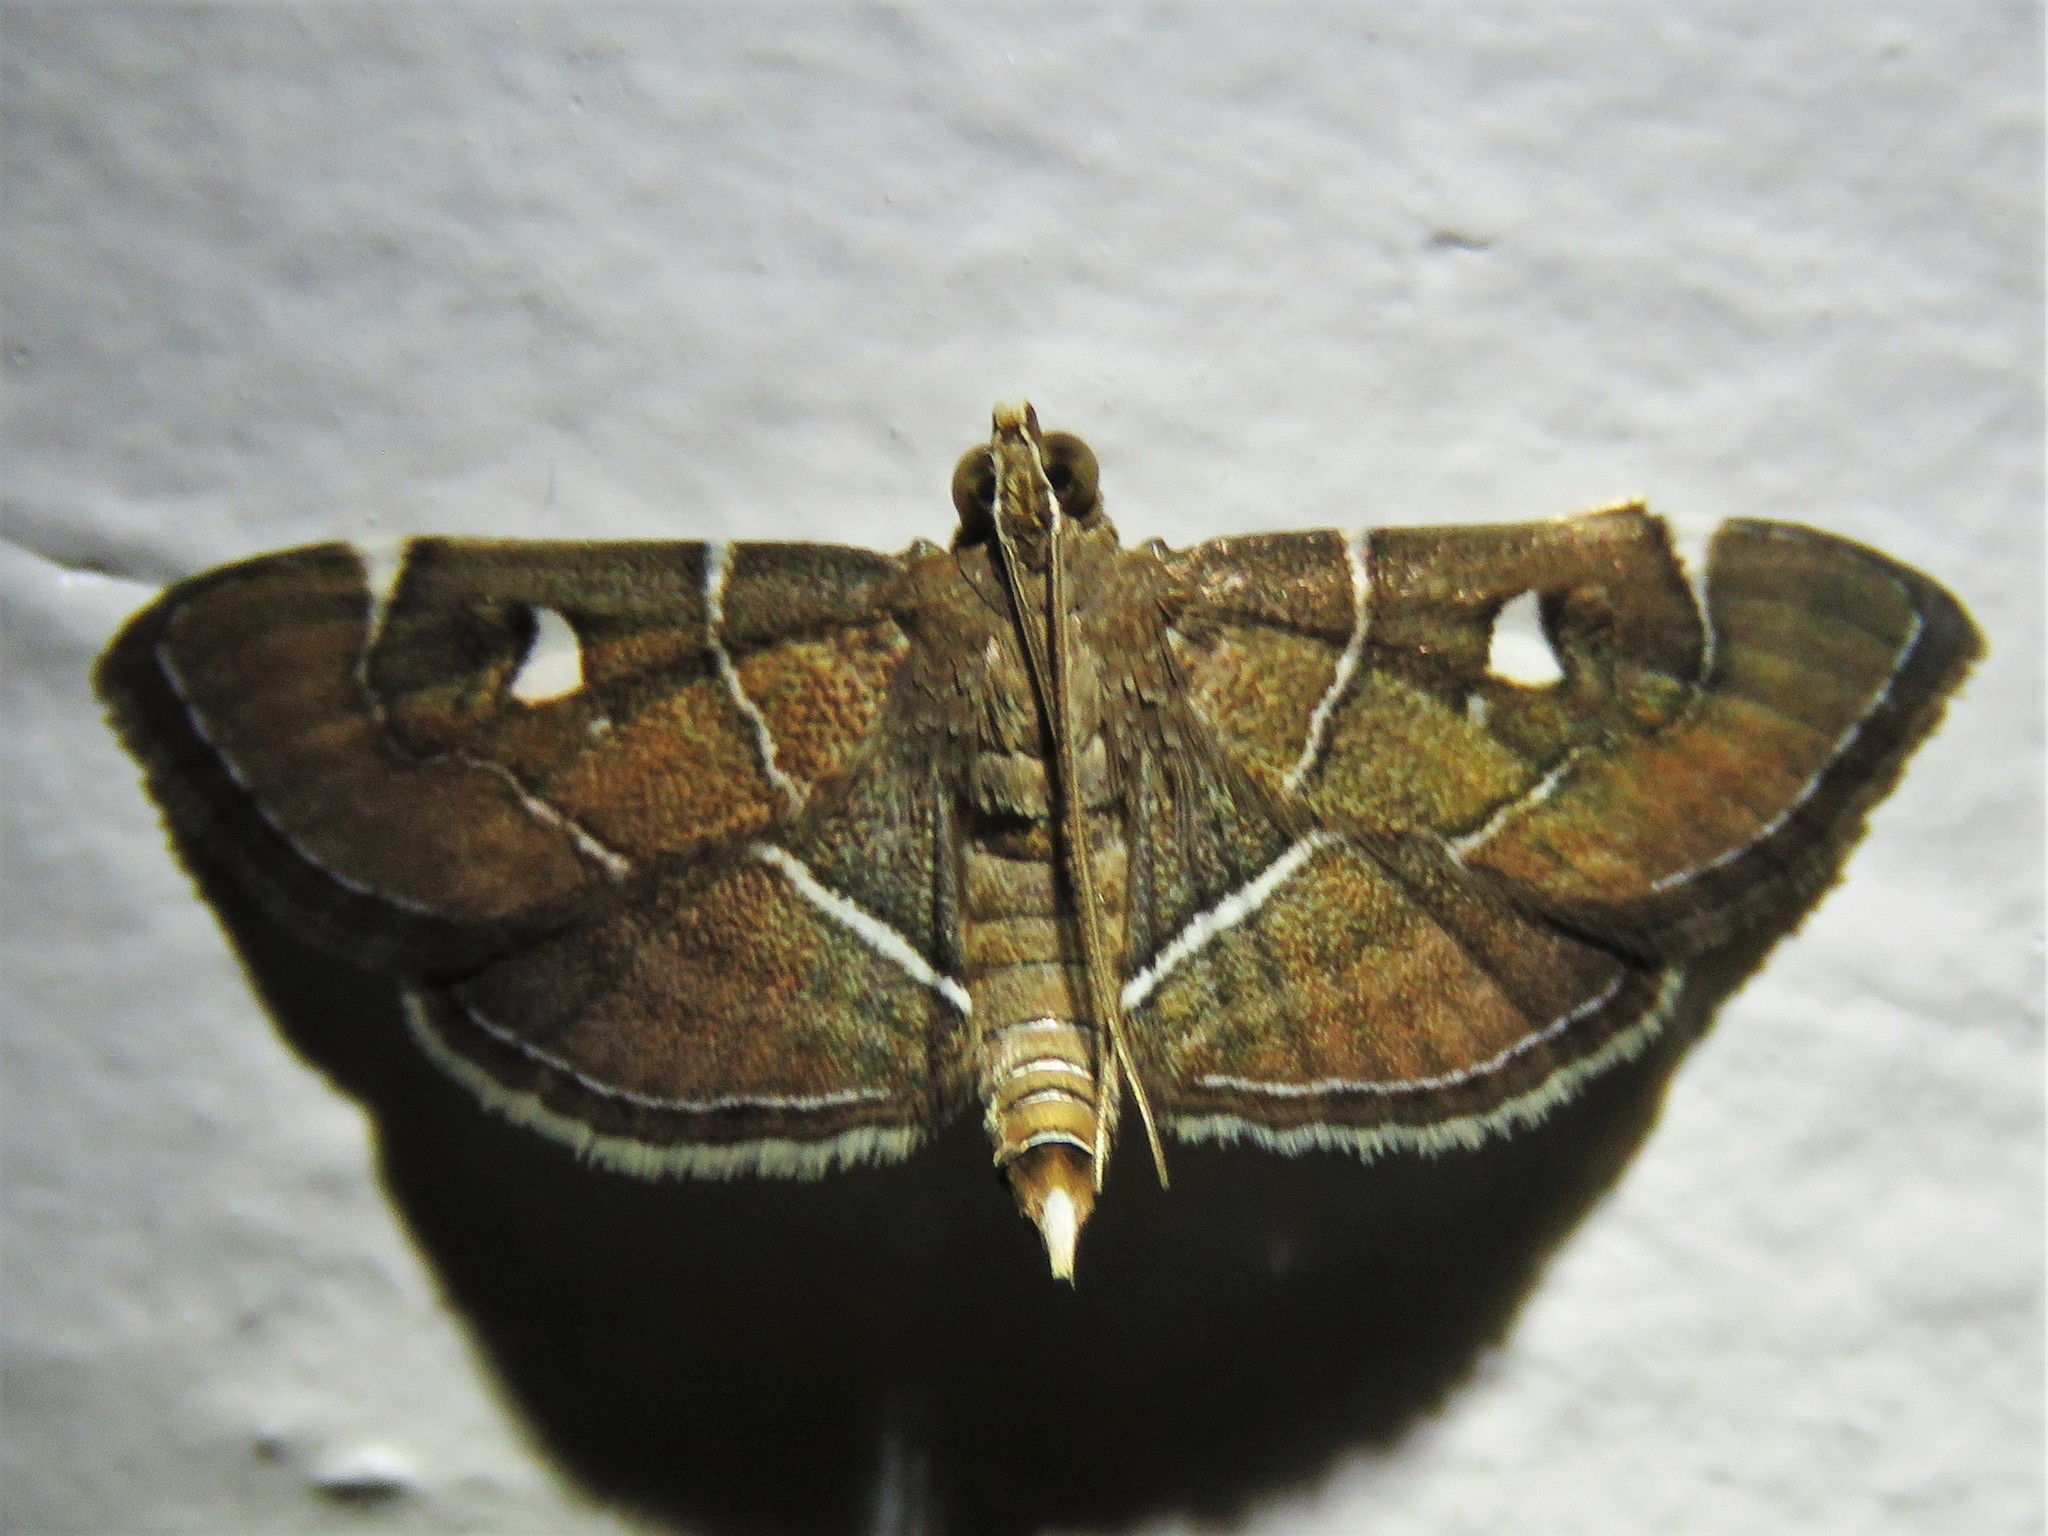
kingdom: Animalia
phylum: Arthropoda
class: Insecta
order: Lepidoptera
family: Crambidae
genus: Lamprosema
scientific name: Lamprosema victoriae
